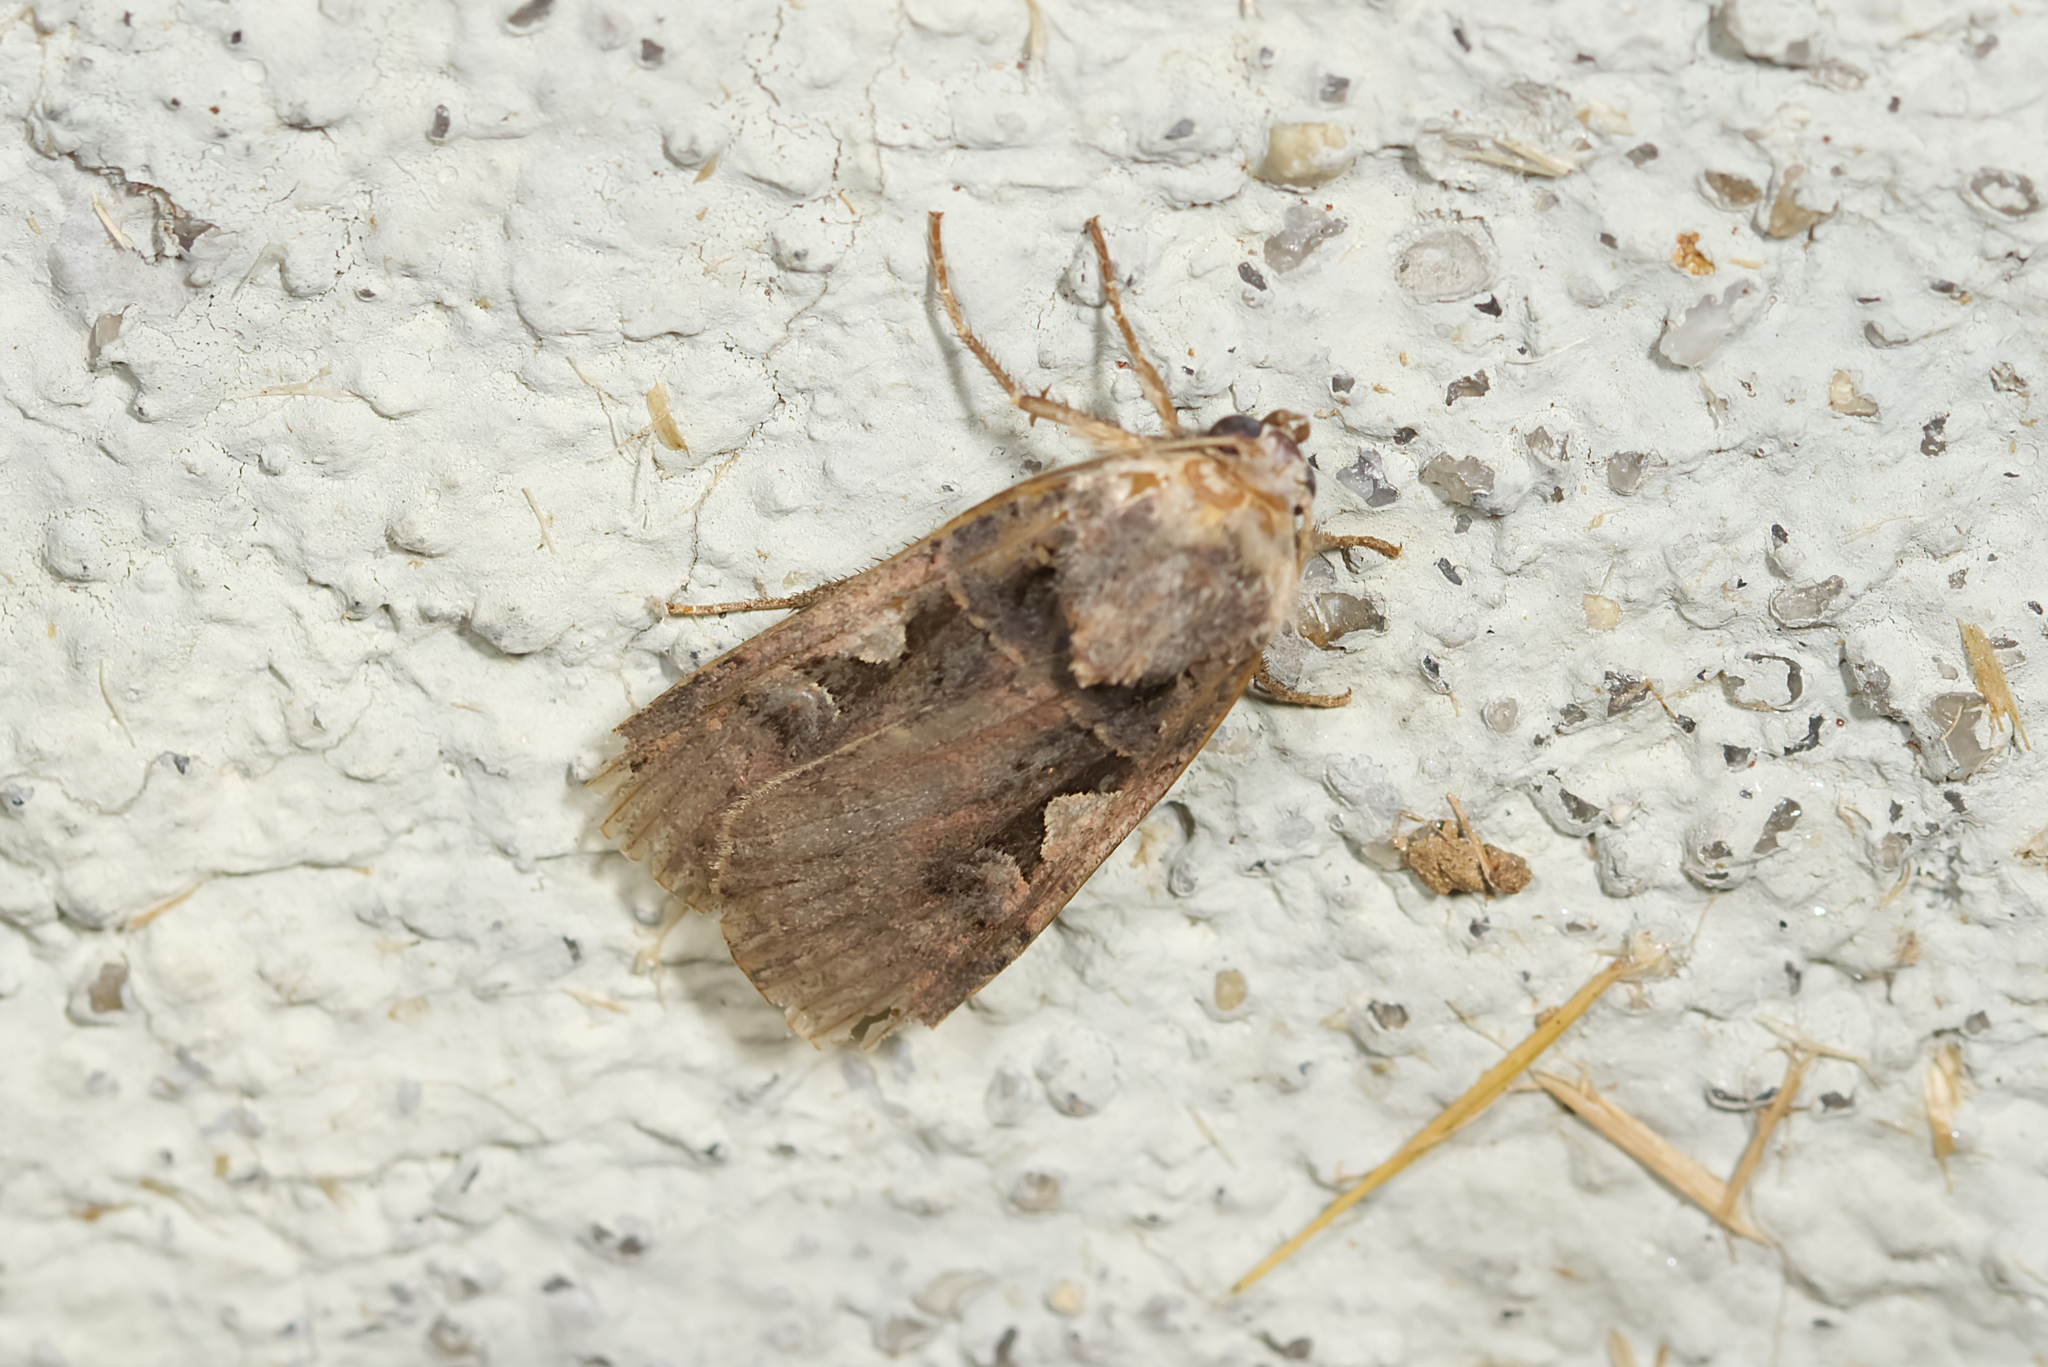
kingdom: Animalia
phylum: Arthropoda
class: Insecta
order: Lepidoptera
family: Noctuidae
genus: Xestia
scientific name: Xestia c-nigrum
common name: Setaceous hebrew character
